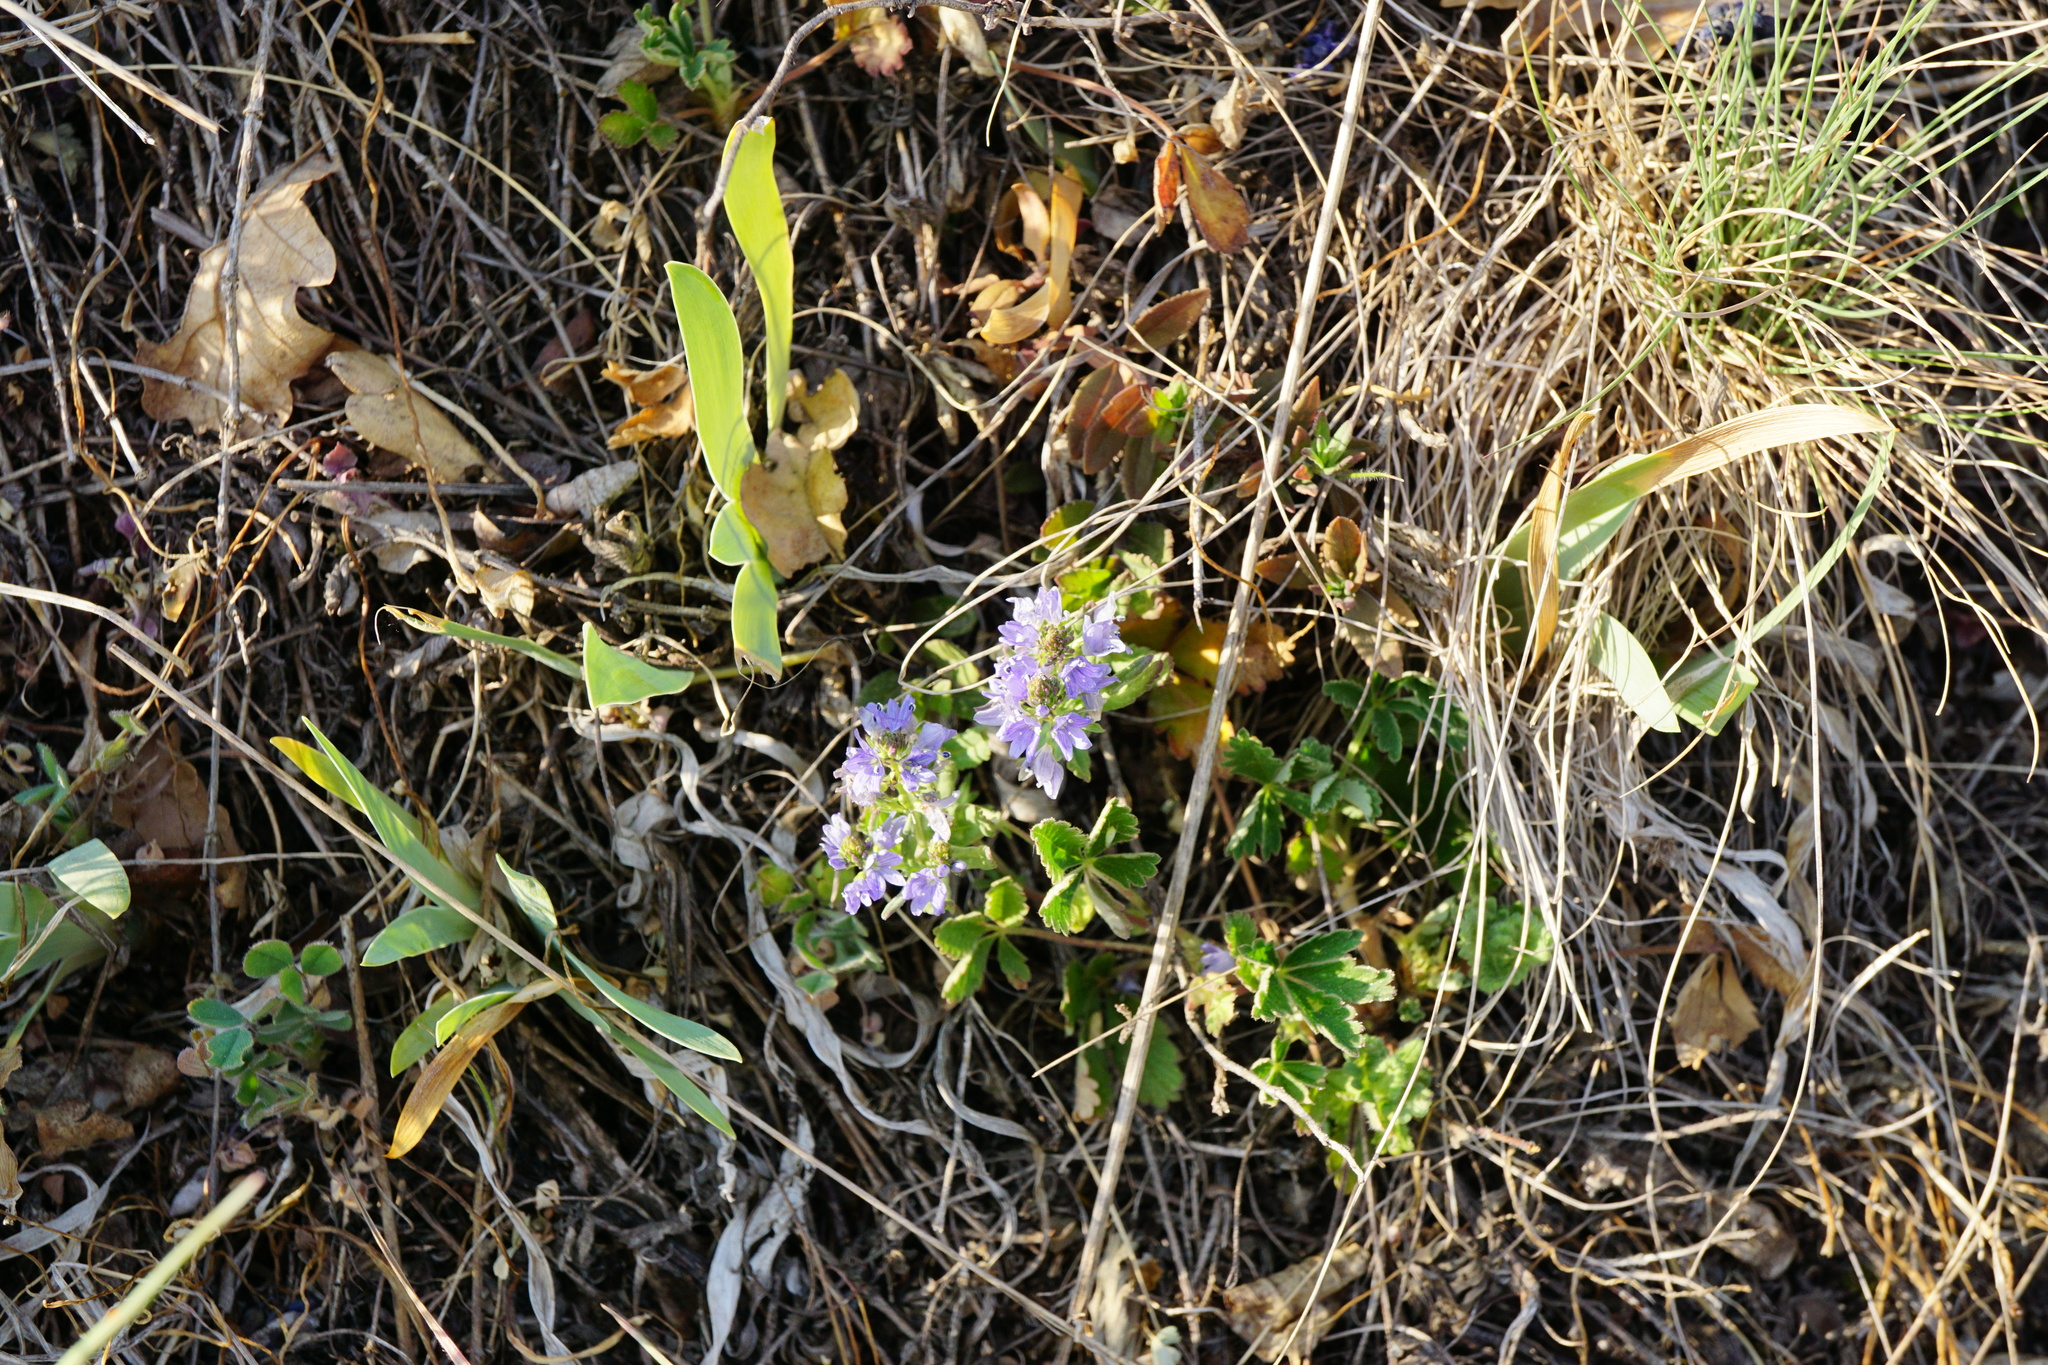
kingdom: Plantae
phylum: Tracheophyta
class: Magnoliopsida
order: Lamiales
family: Plantaginaceae
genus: Veronica
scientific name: Veronica prostrata
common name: Prostrate speedwell
